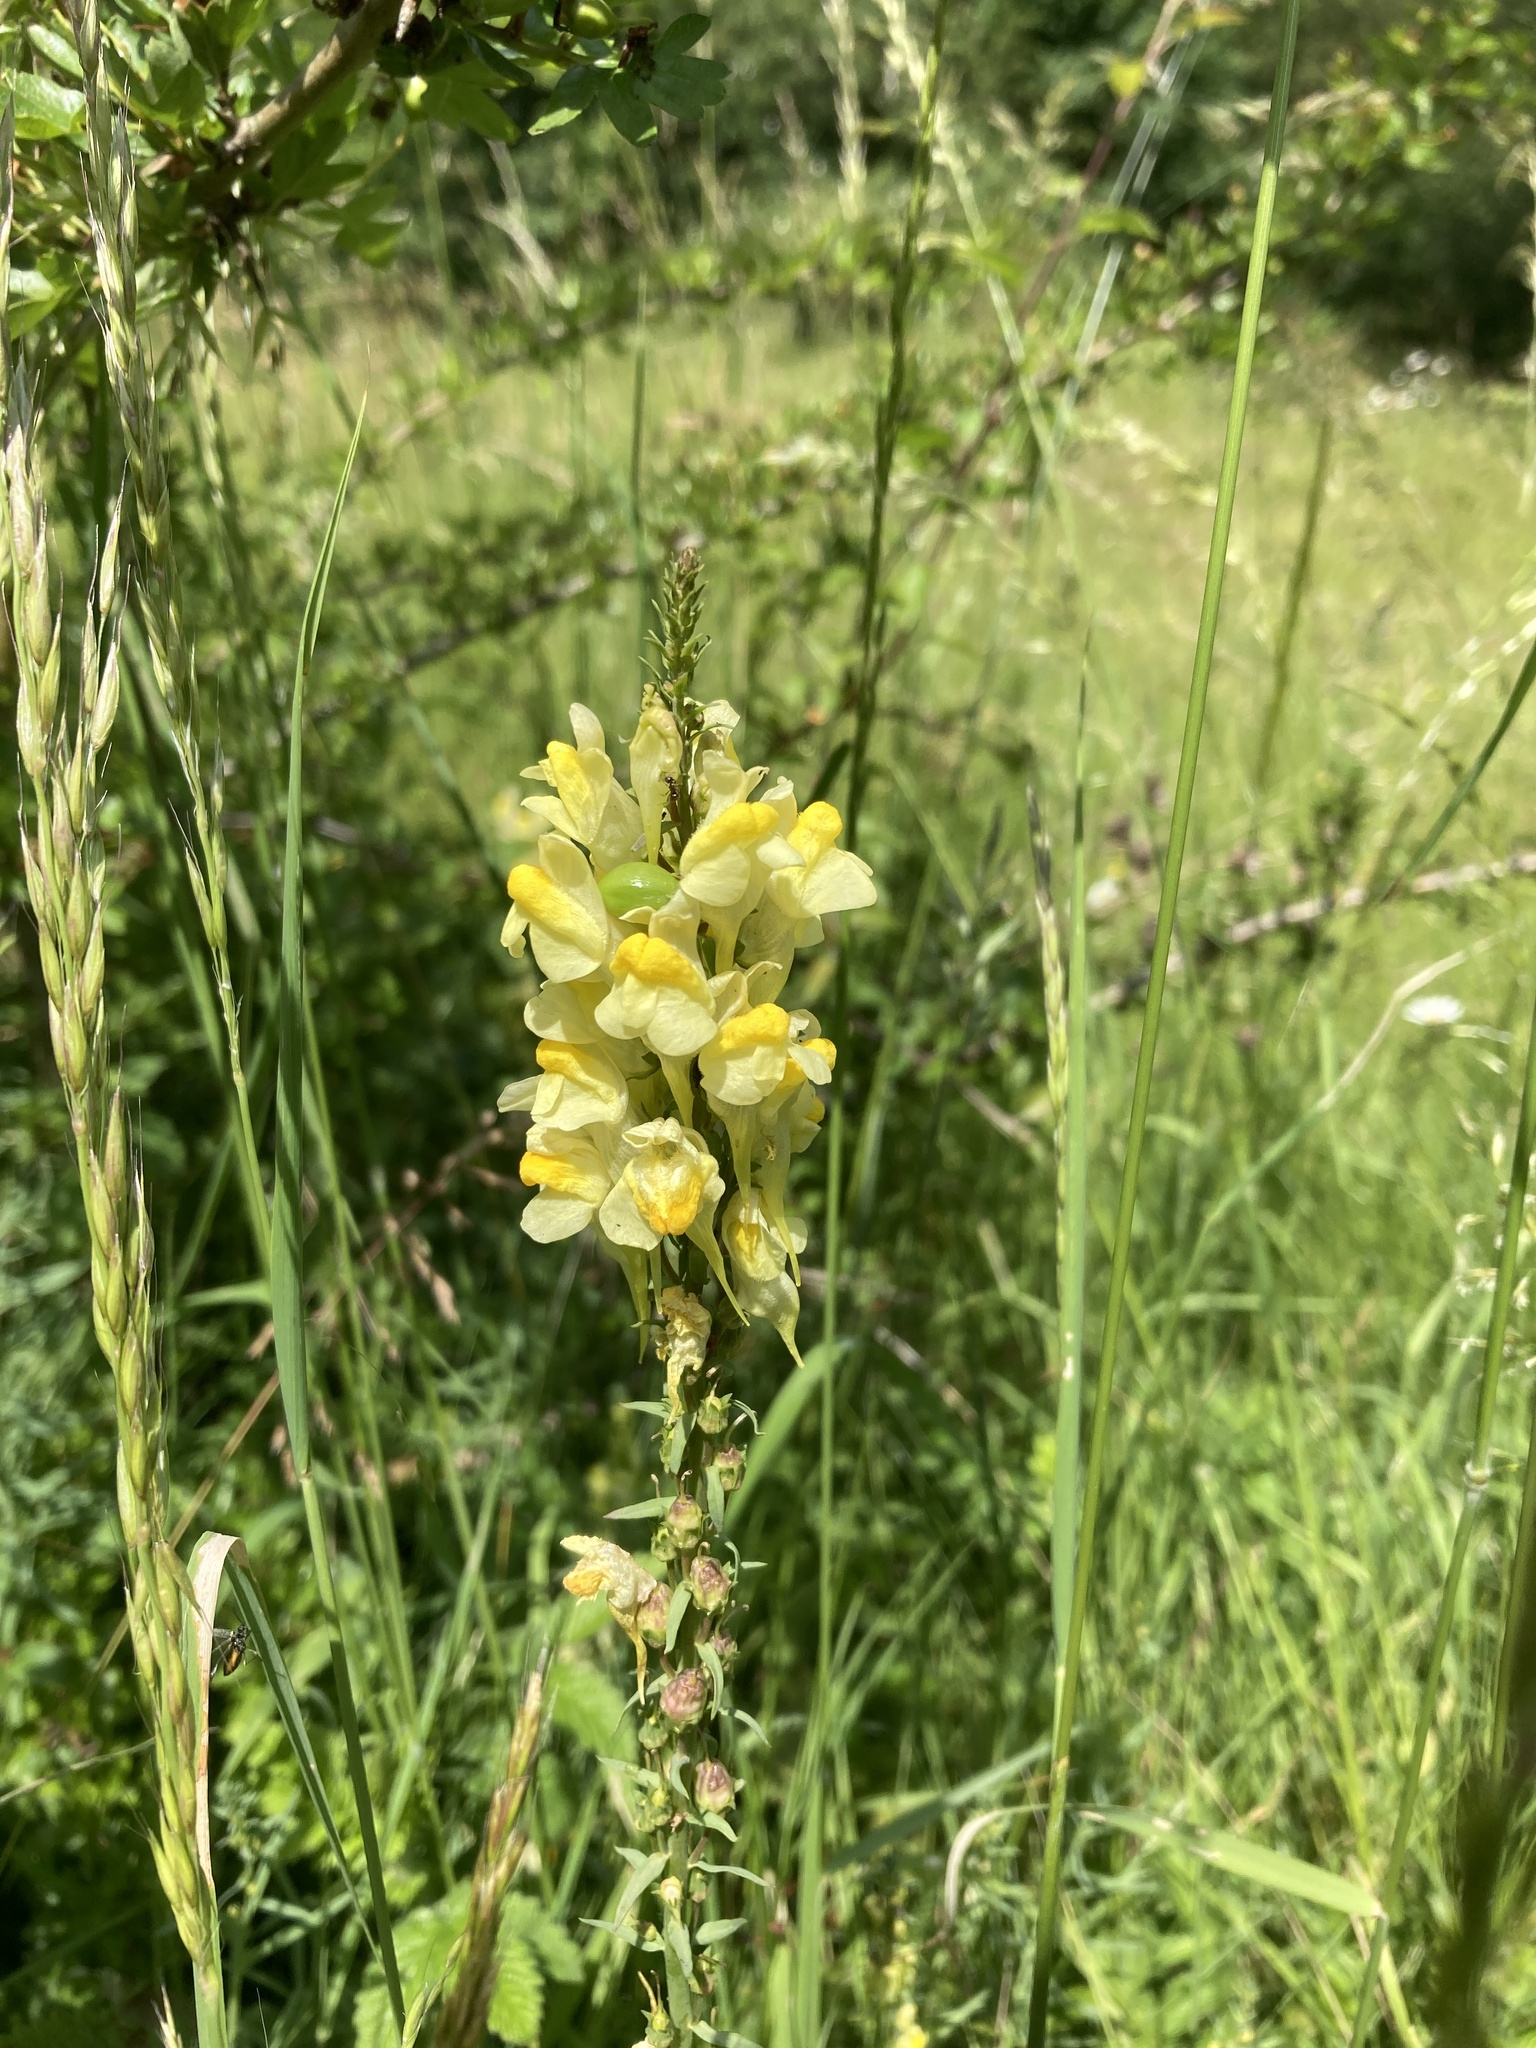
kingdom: Plantae
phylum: Tracheophyta
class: Magnoliopsida
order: Lamiales
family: Plantaginaceae
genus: Linaria
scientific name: Linaria vulgaris
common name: Butter and eggs
